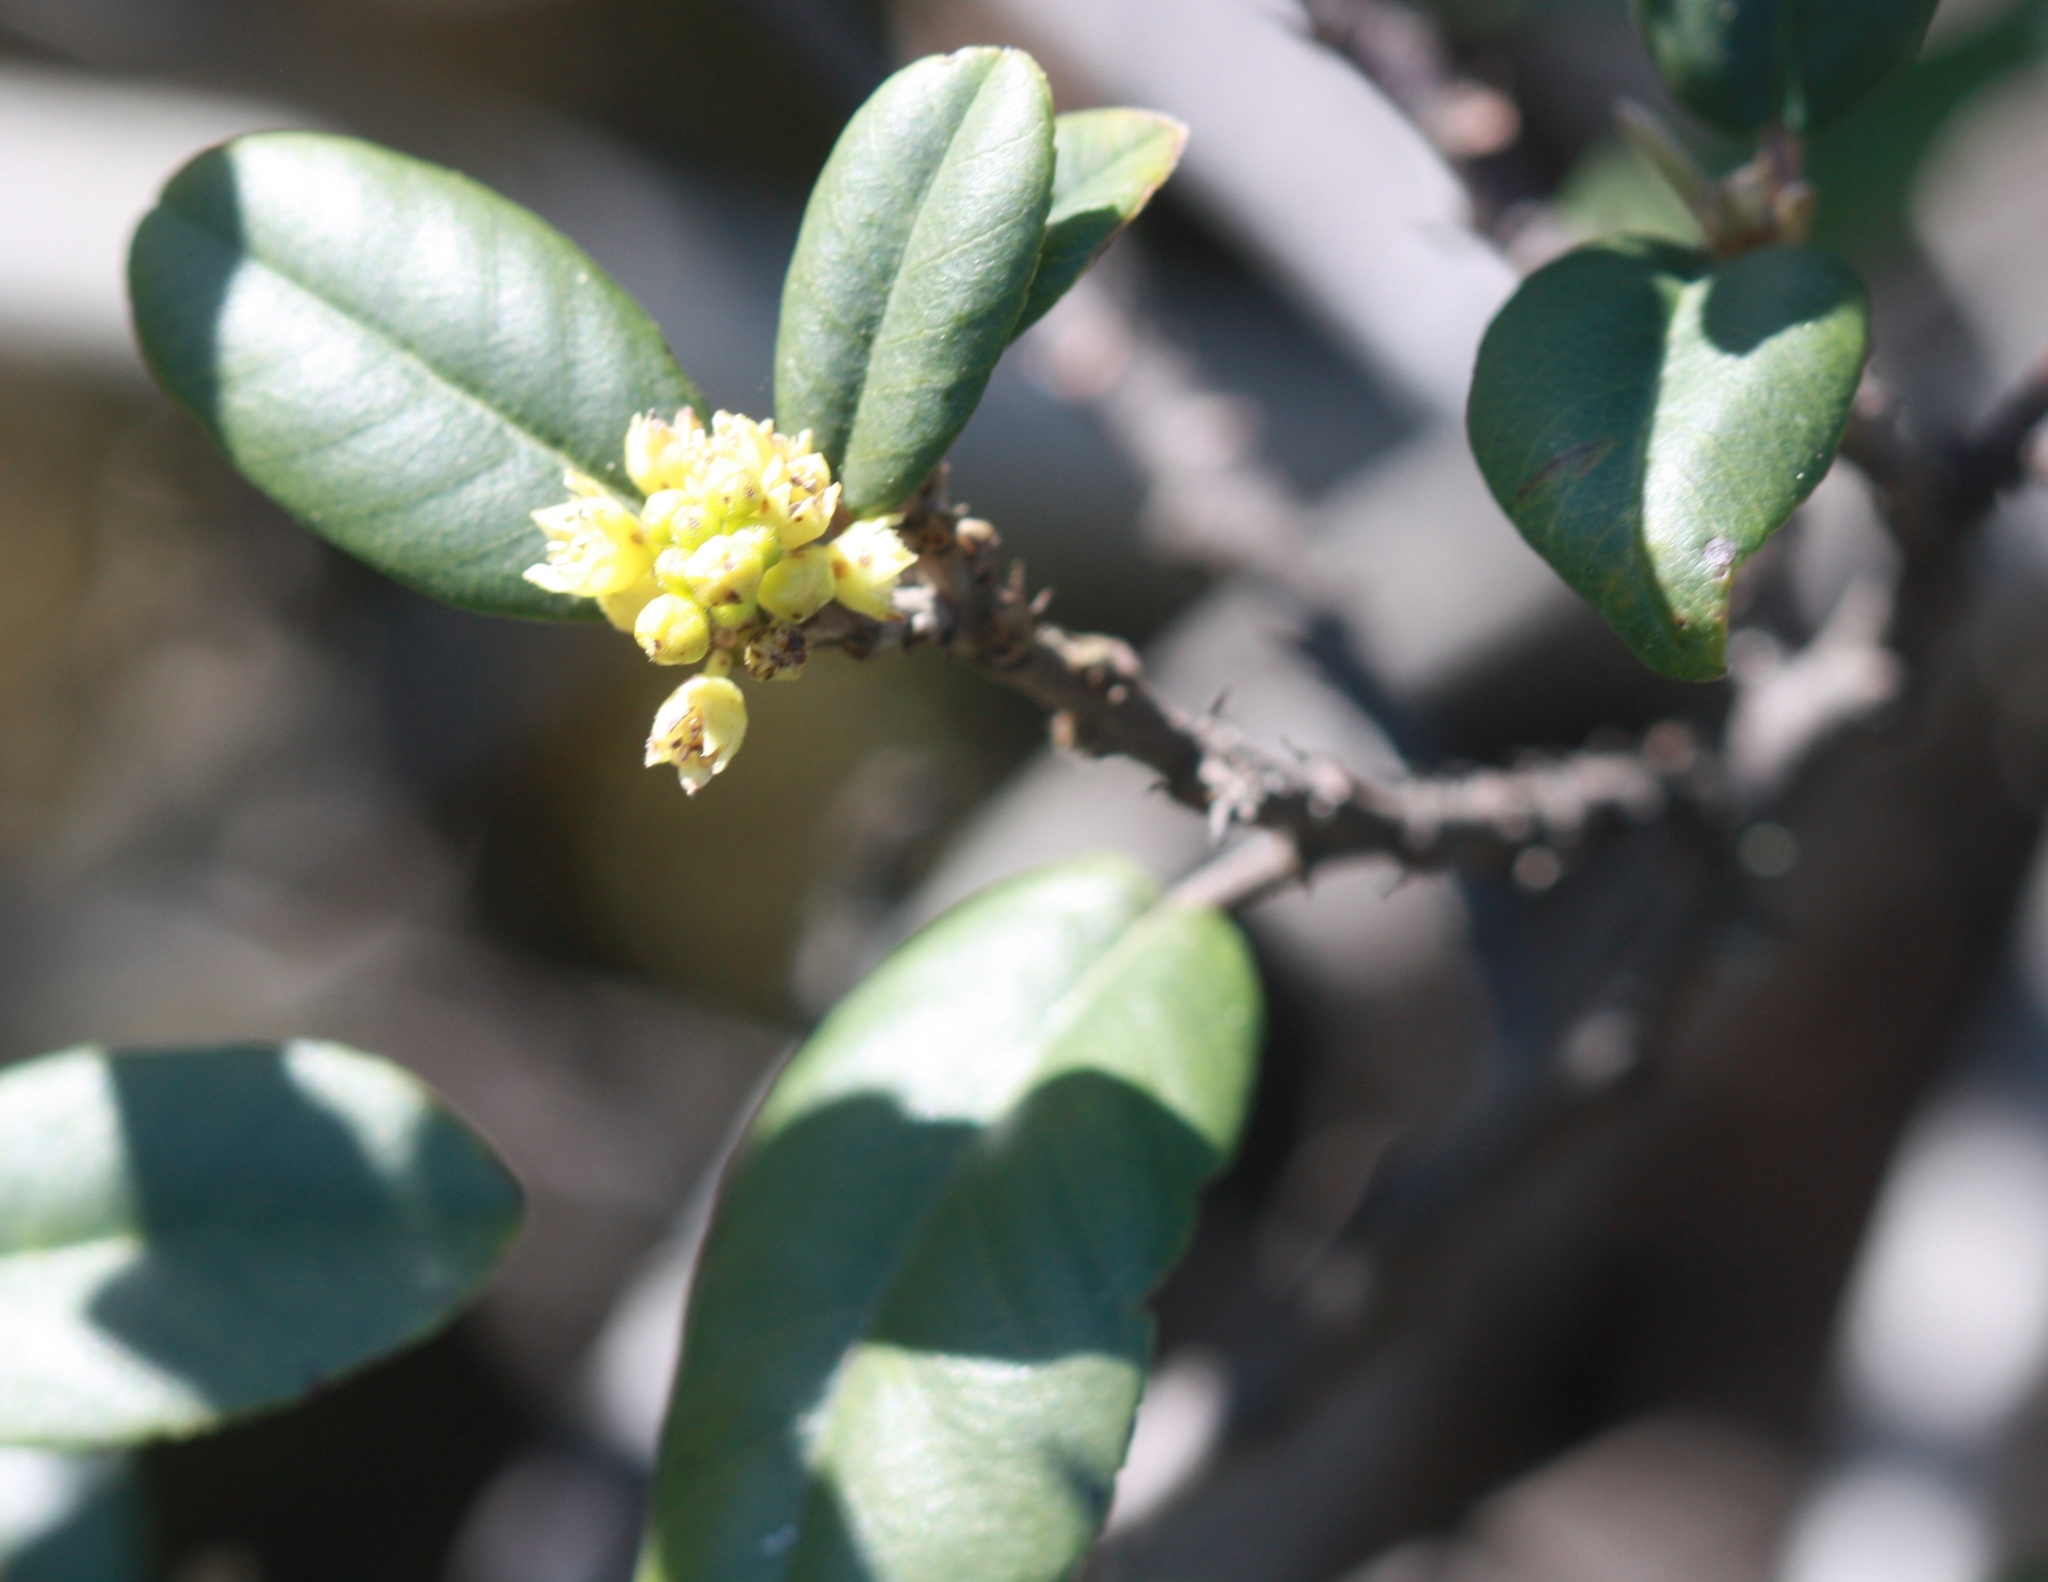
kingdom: Plantae
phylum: Tracheophyta
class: Magnoliopsida
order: Rosales
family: Rhamnaceae
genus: Frangula
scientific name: Frangula californica
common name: California buckthorn
